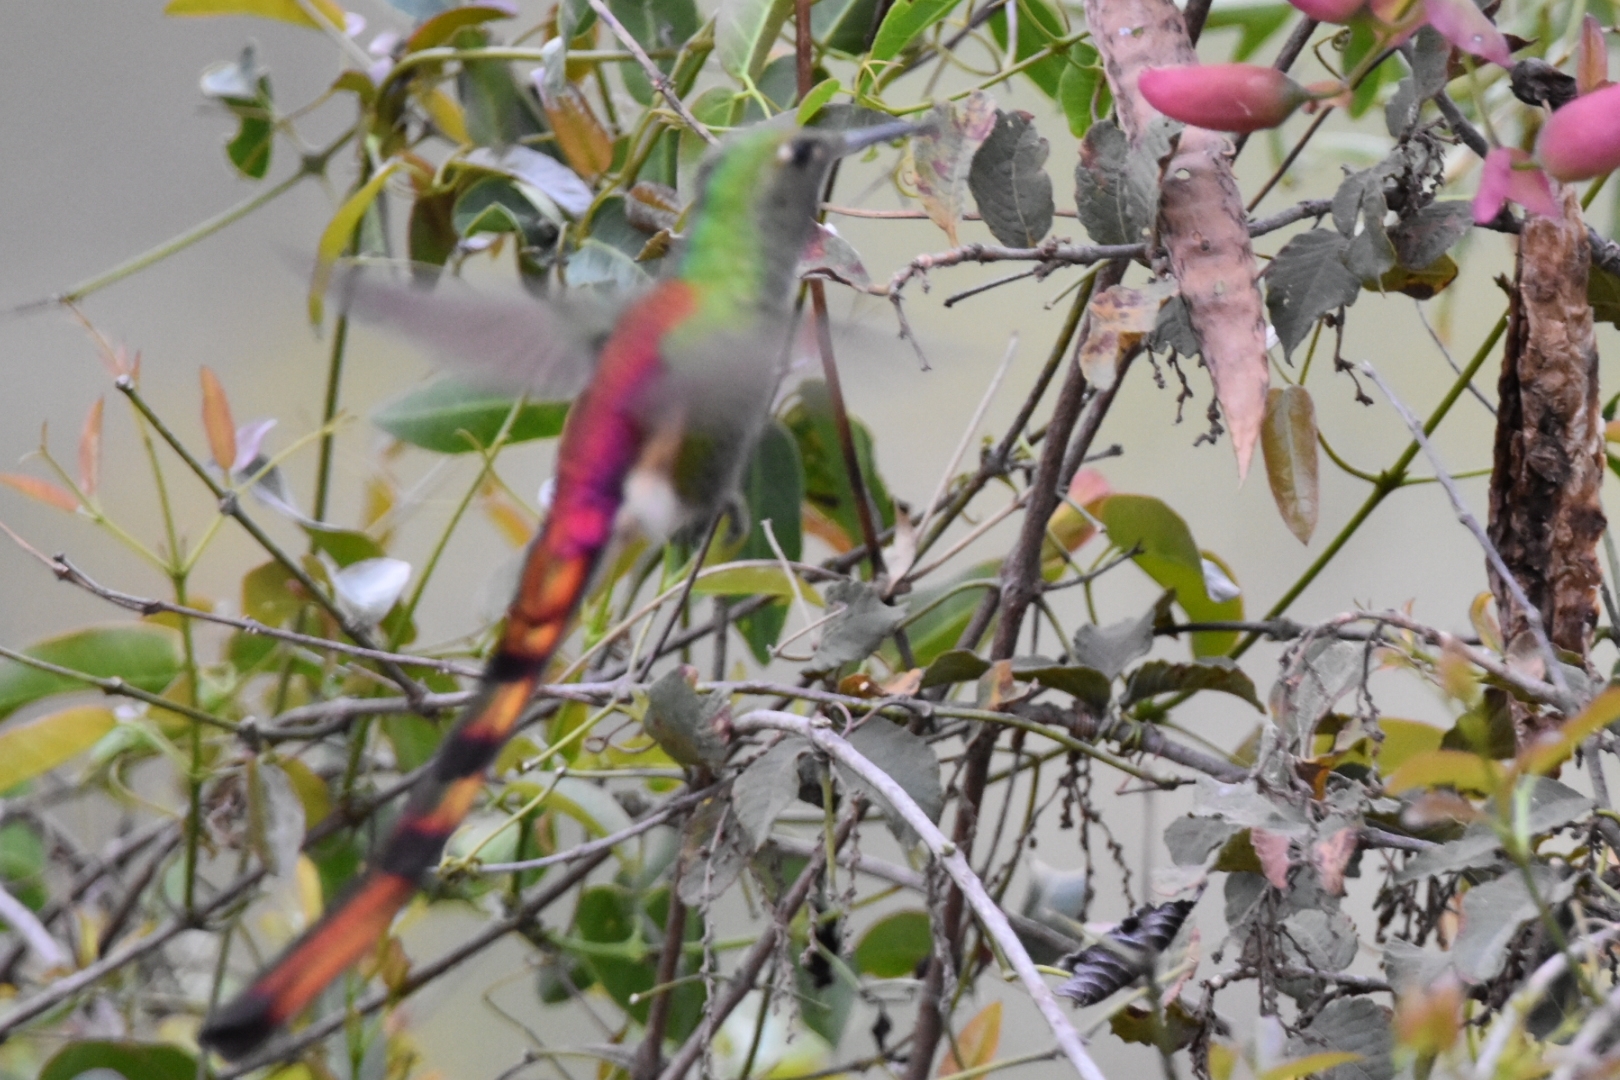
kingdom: Animalia
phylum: Chordata
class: Aves
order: Apodiformes
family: Trochilidae
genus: Sappho
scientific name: Sappho sparganurus
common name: Red-tailed comet
